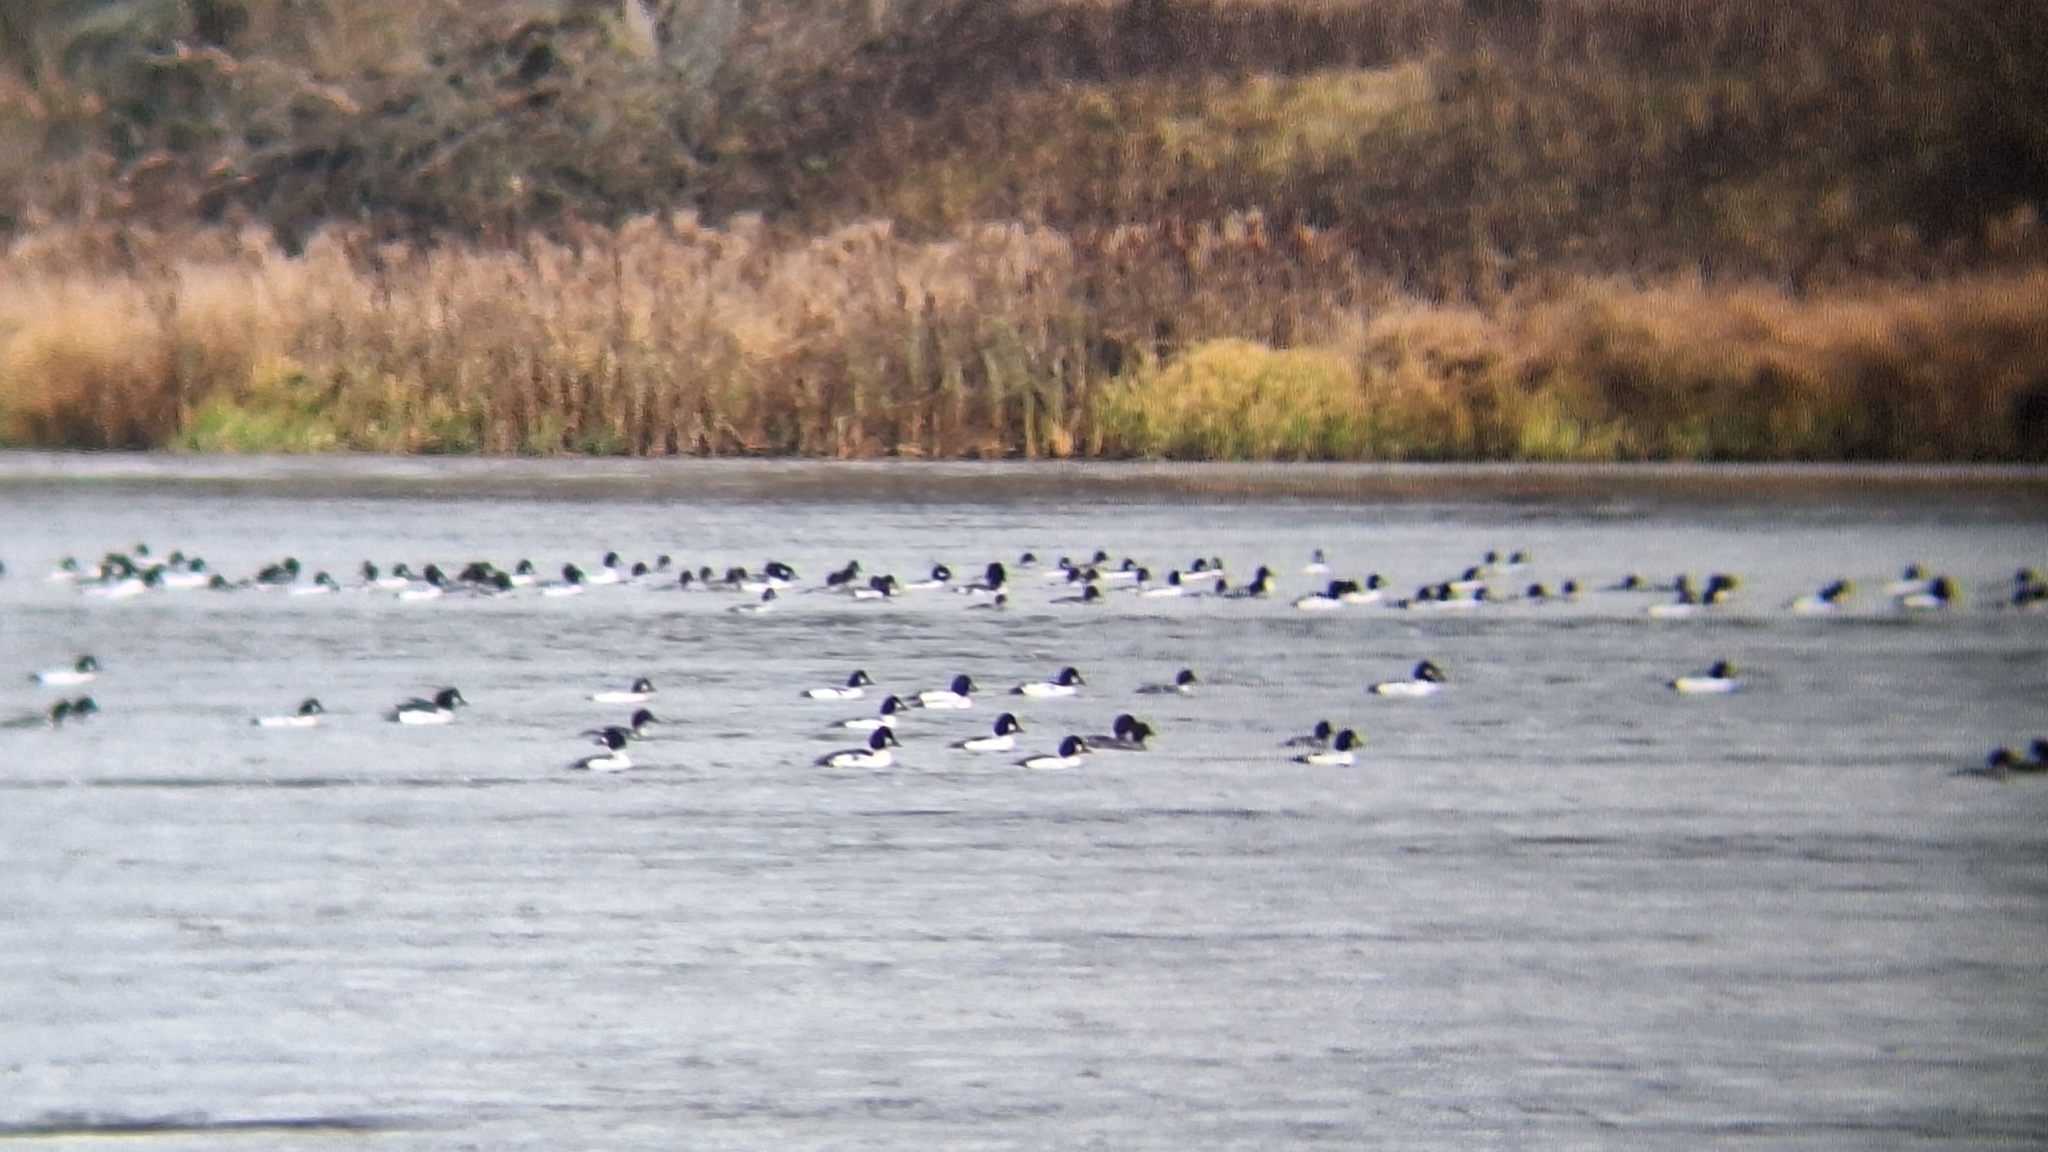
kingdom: Animalia
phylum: Chordata
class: Aves
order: Anseriformes
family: Anatidae
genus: Bucephala
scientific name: Bucephala clangula
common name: Common goldeneye
